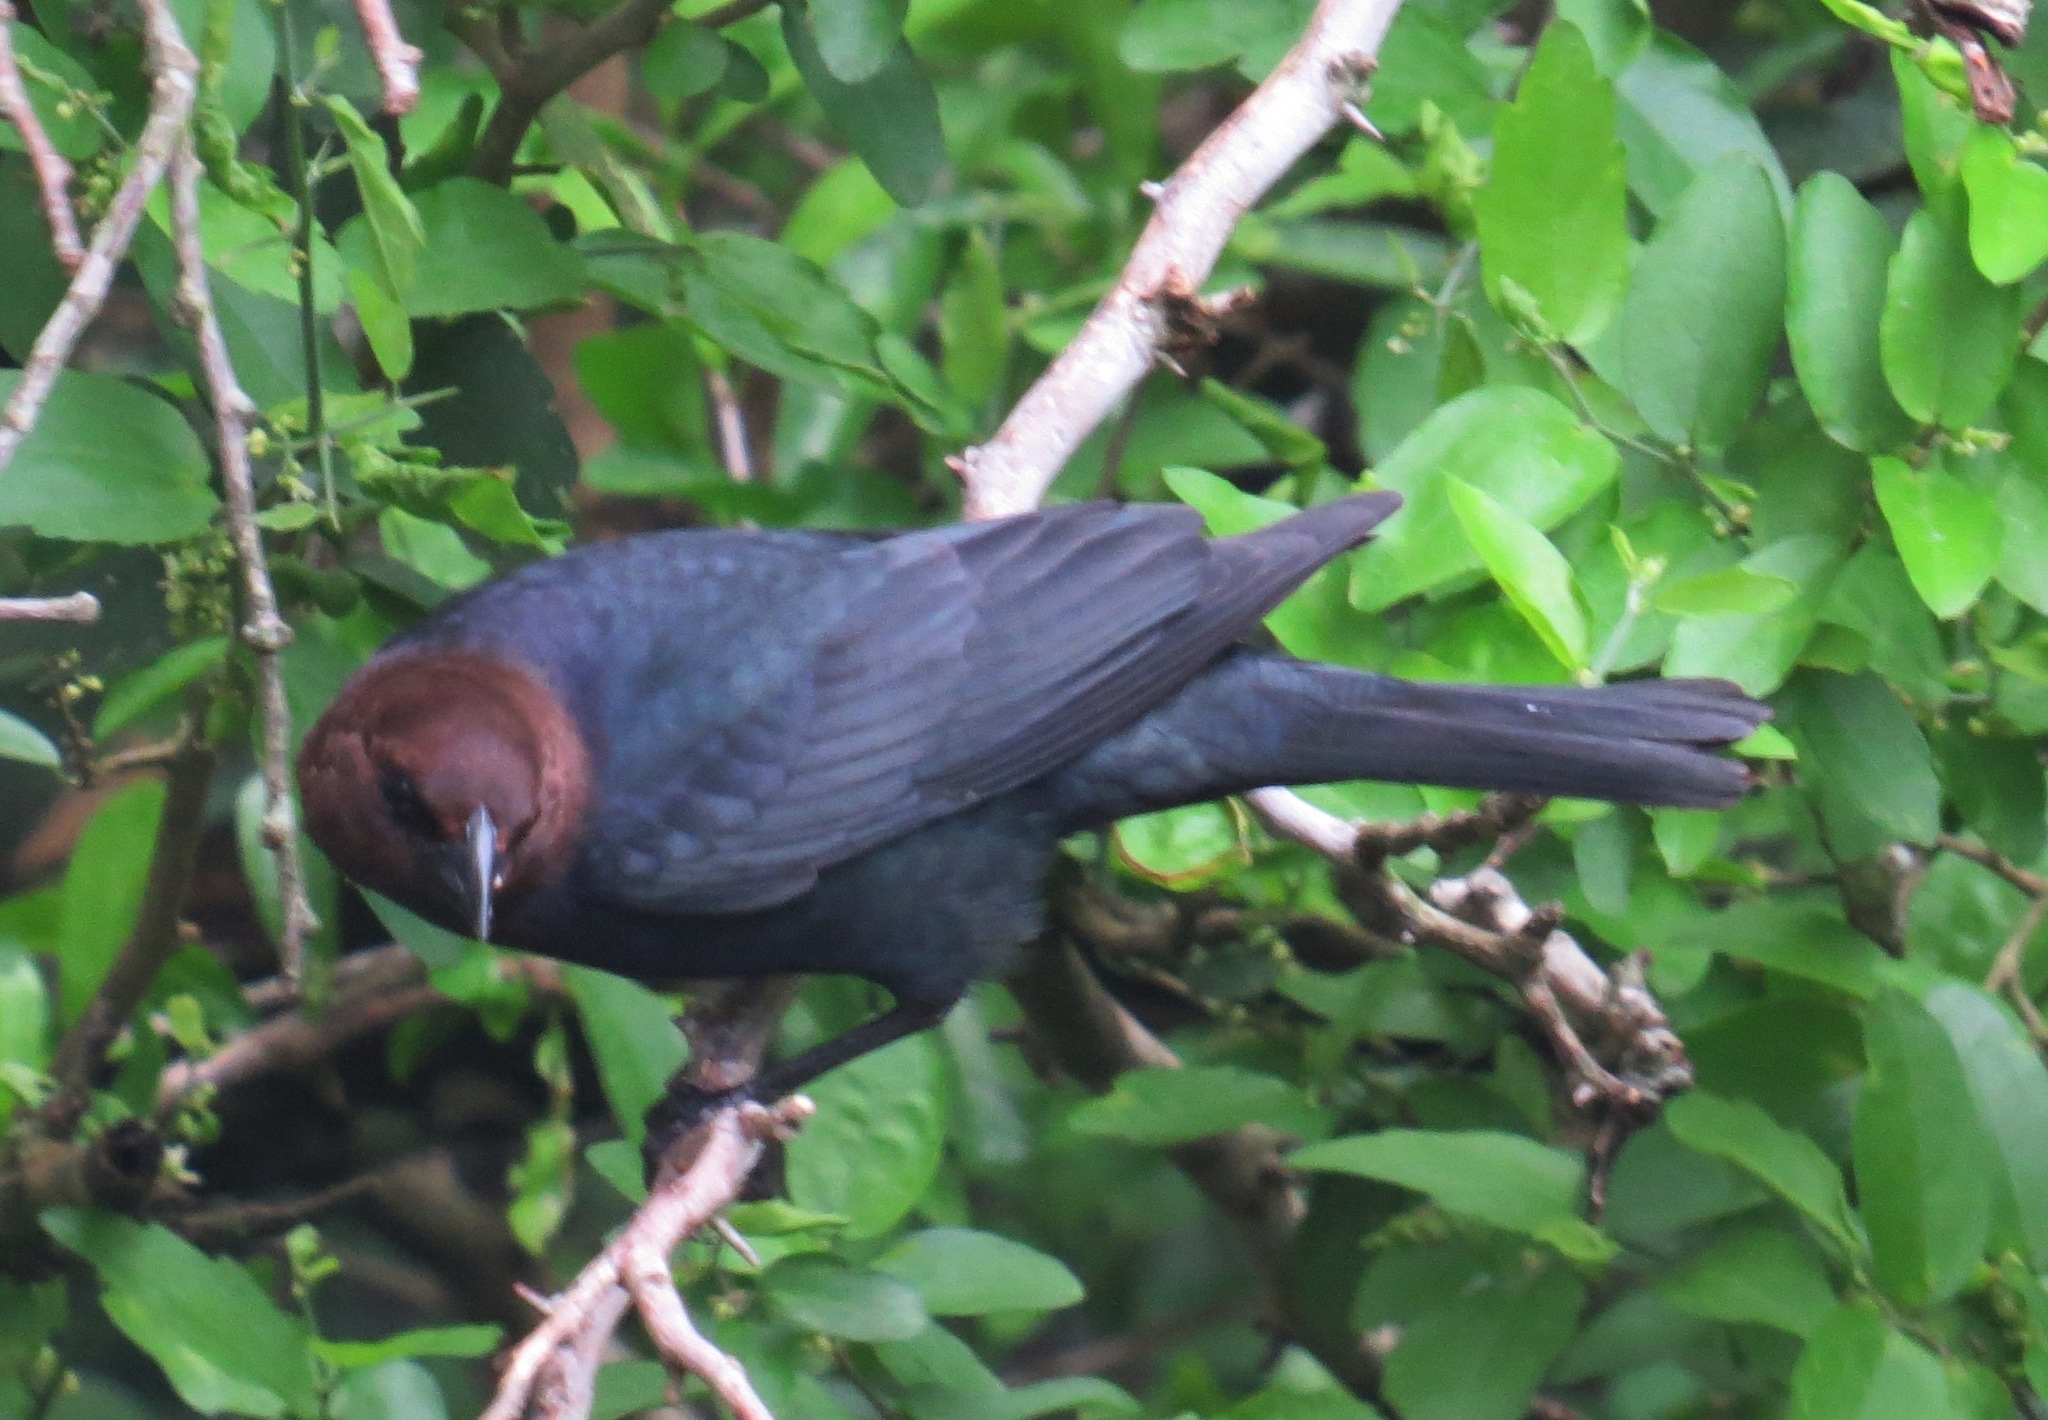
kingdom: Animalia
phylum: Chordata
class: Aves
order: Passeriformes
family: Icteridae
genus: Molothrus
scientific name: Molothrus ater
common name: Brown-headed cowbird
